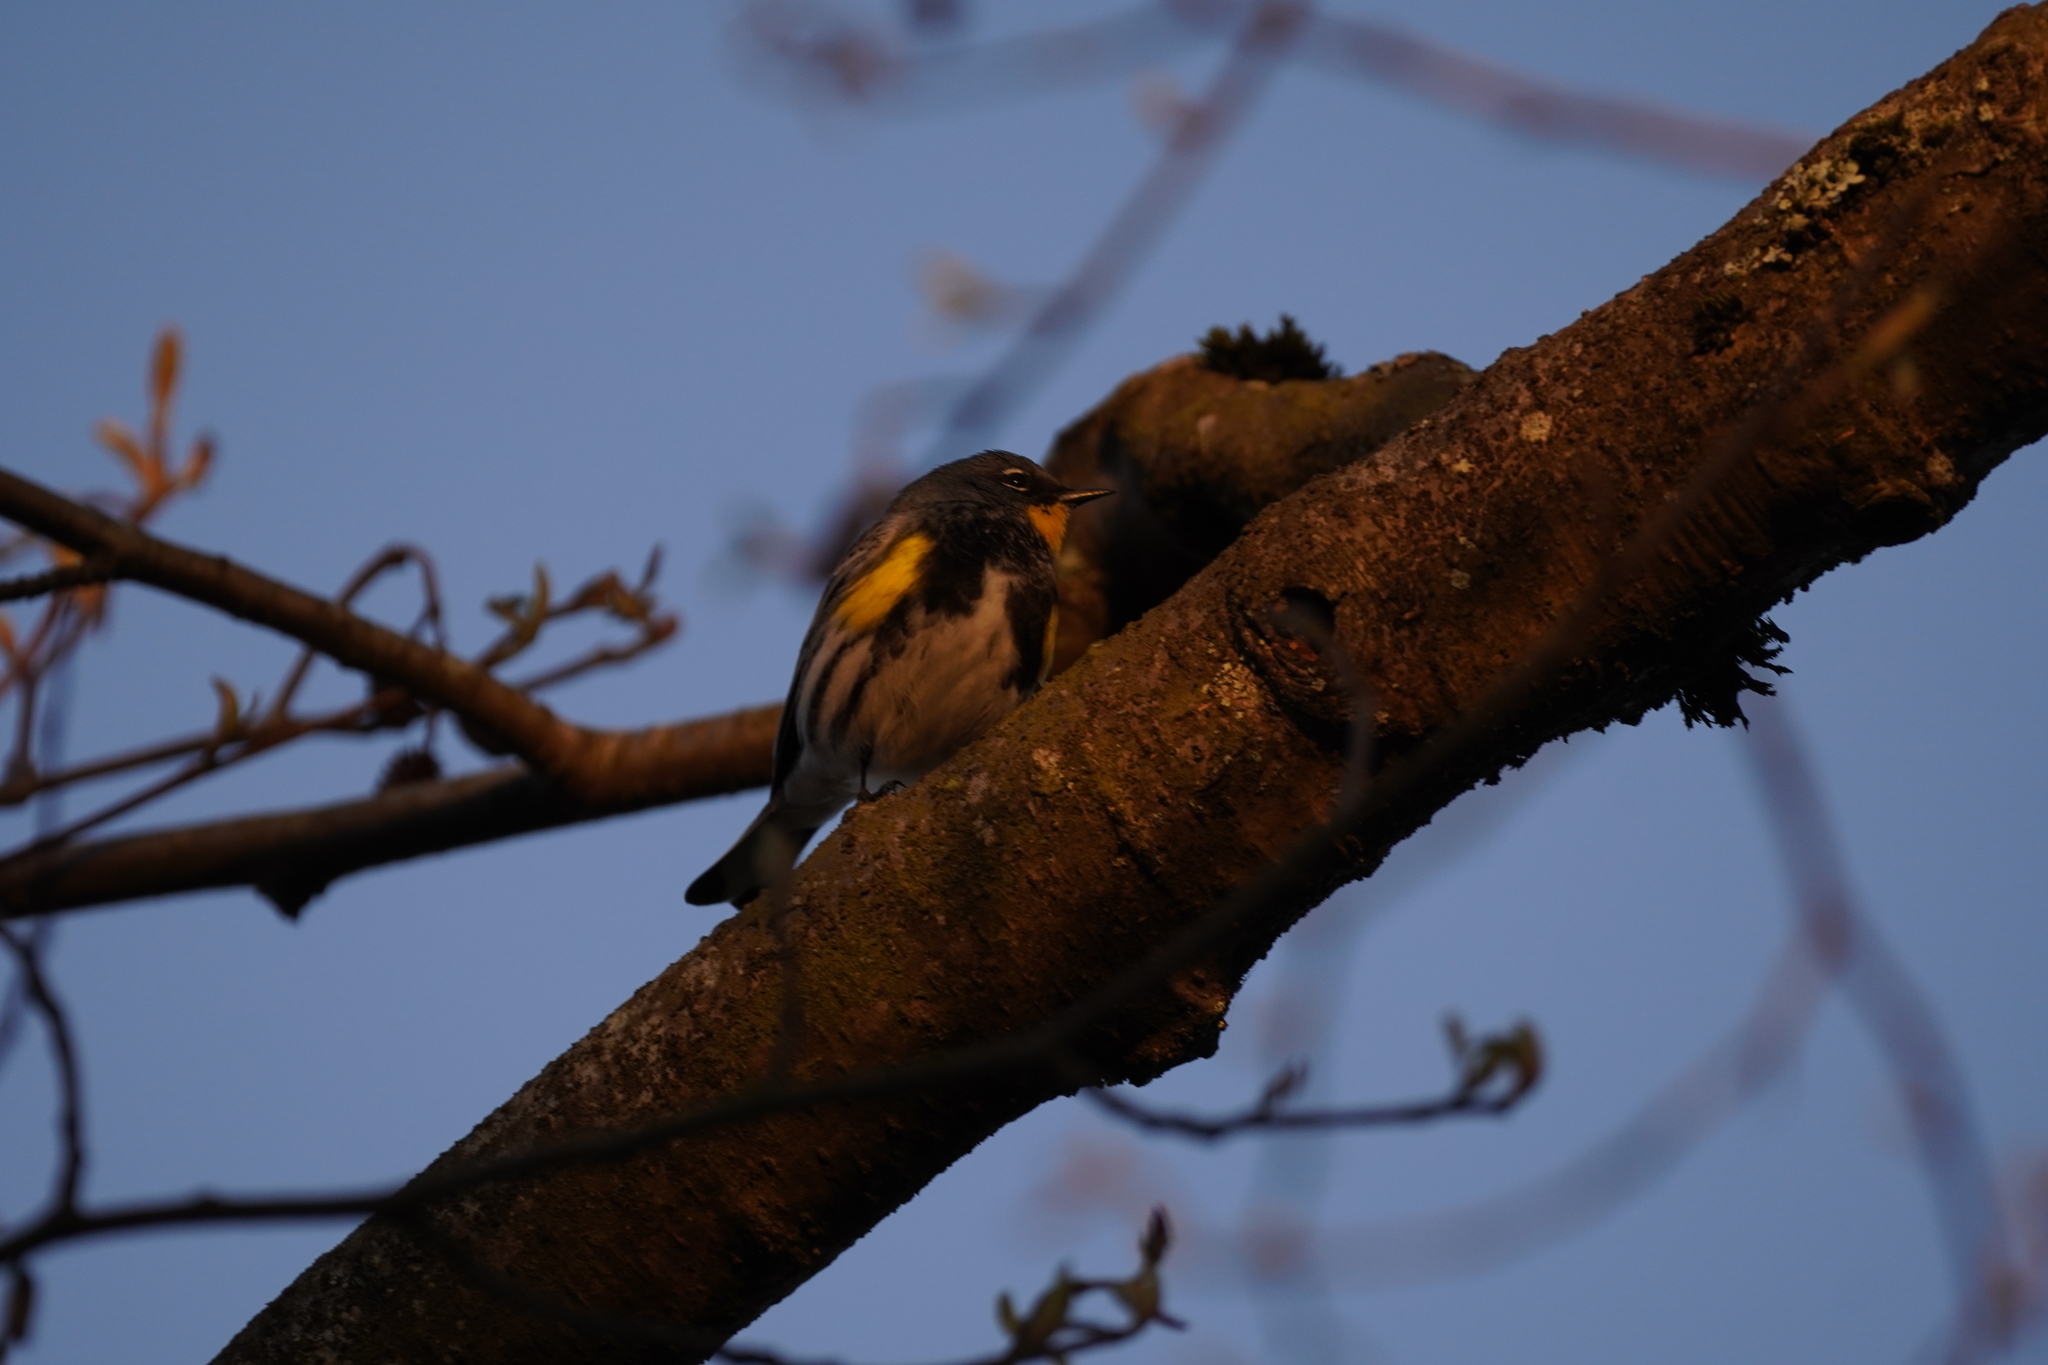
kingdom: Animalia
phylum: Chordata
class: Aves
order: Passeriformes
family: Parulidae
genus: Setophaga
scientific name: Setophaga auduboni
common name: Audubon's warbler
